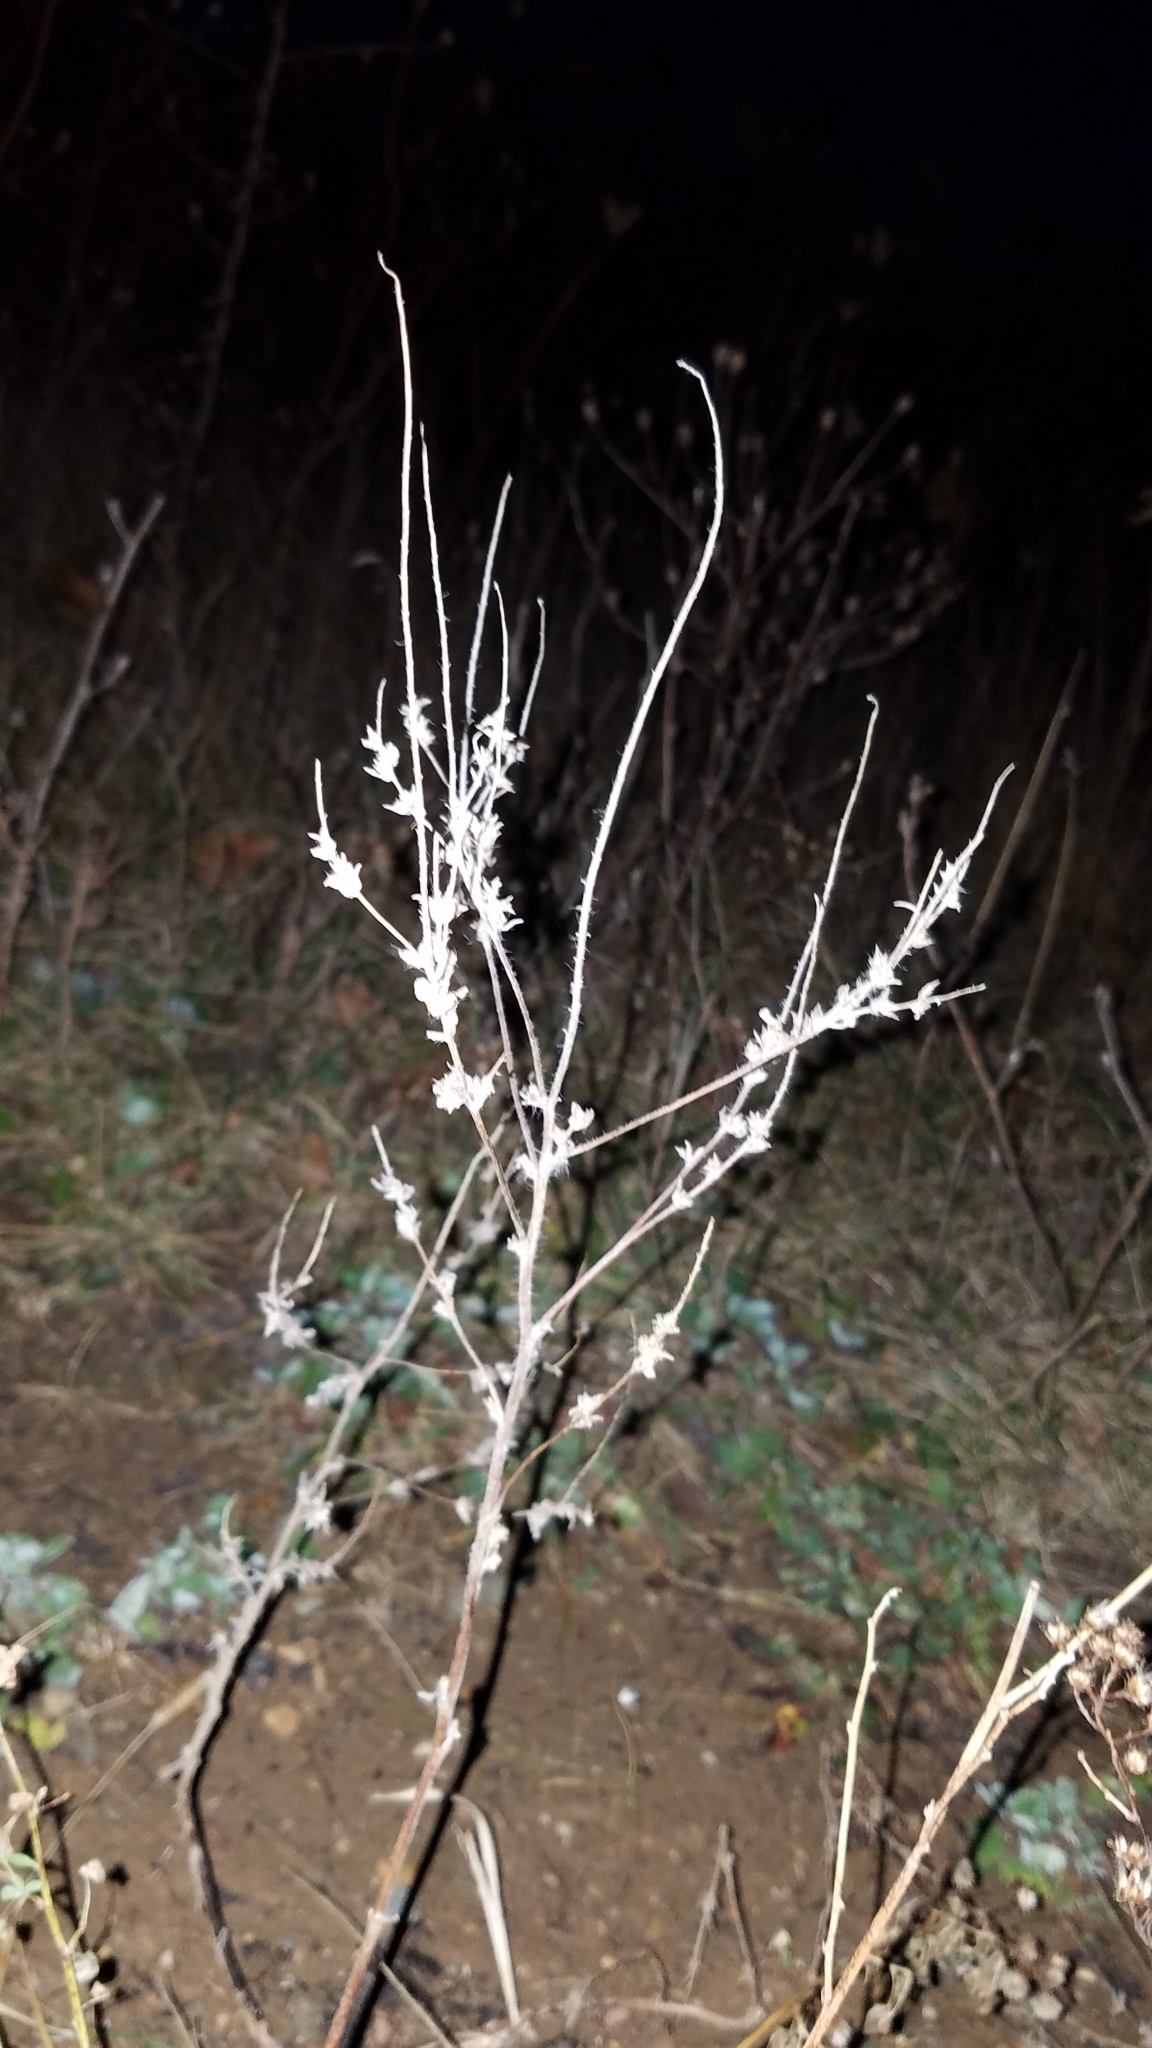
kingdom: Plantae
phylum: Tracheophyta
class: Magnoliopsida
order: Asterales
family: Asteraceae
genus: Artemisia
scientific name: Artemisia vulgaris
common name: Mugwort
